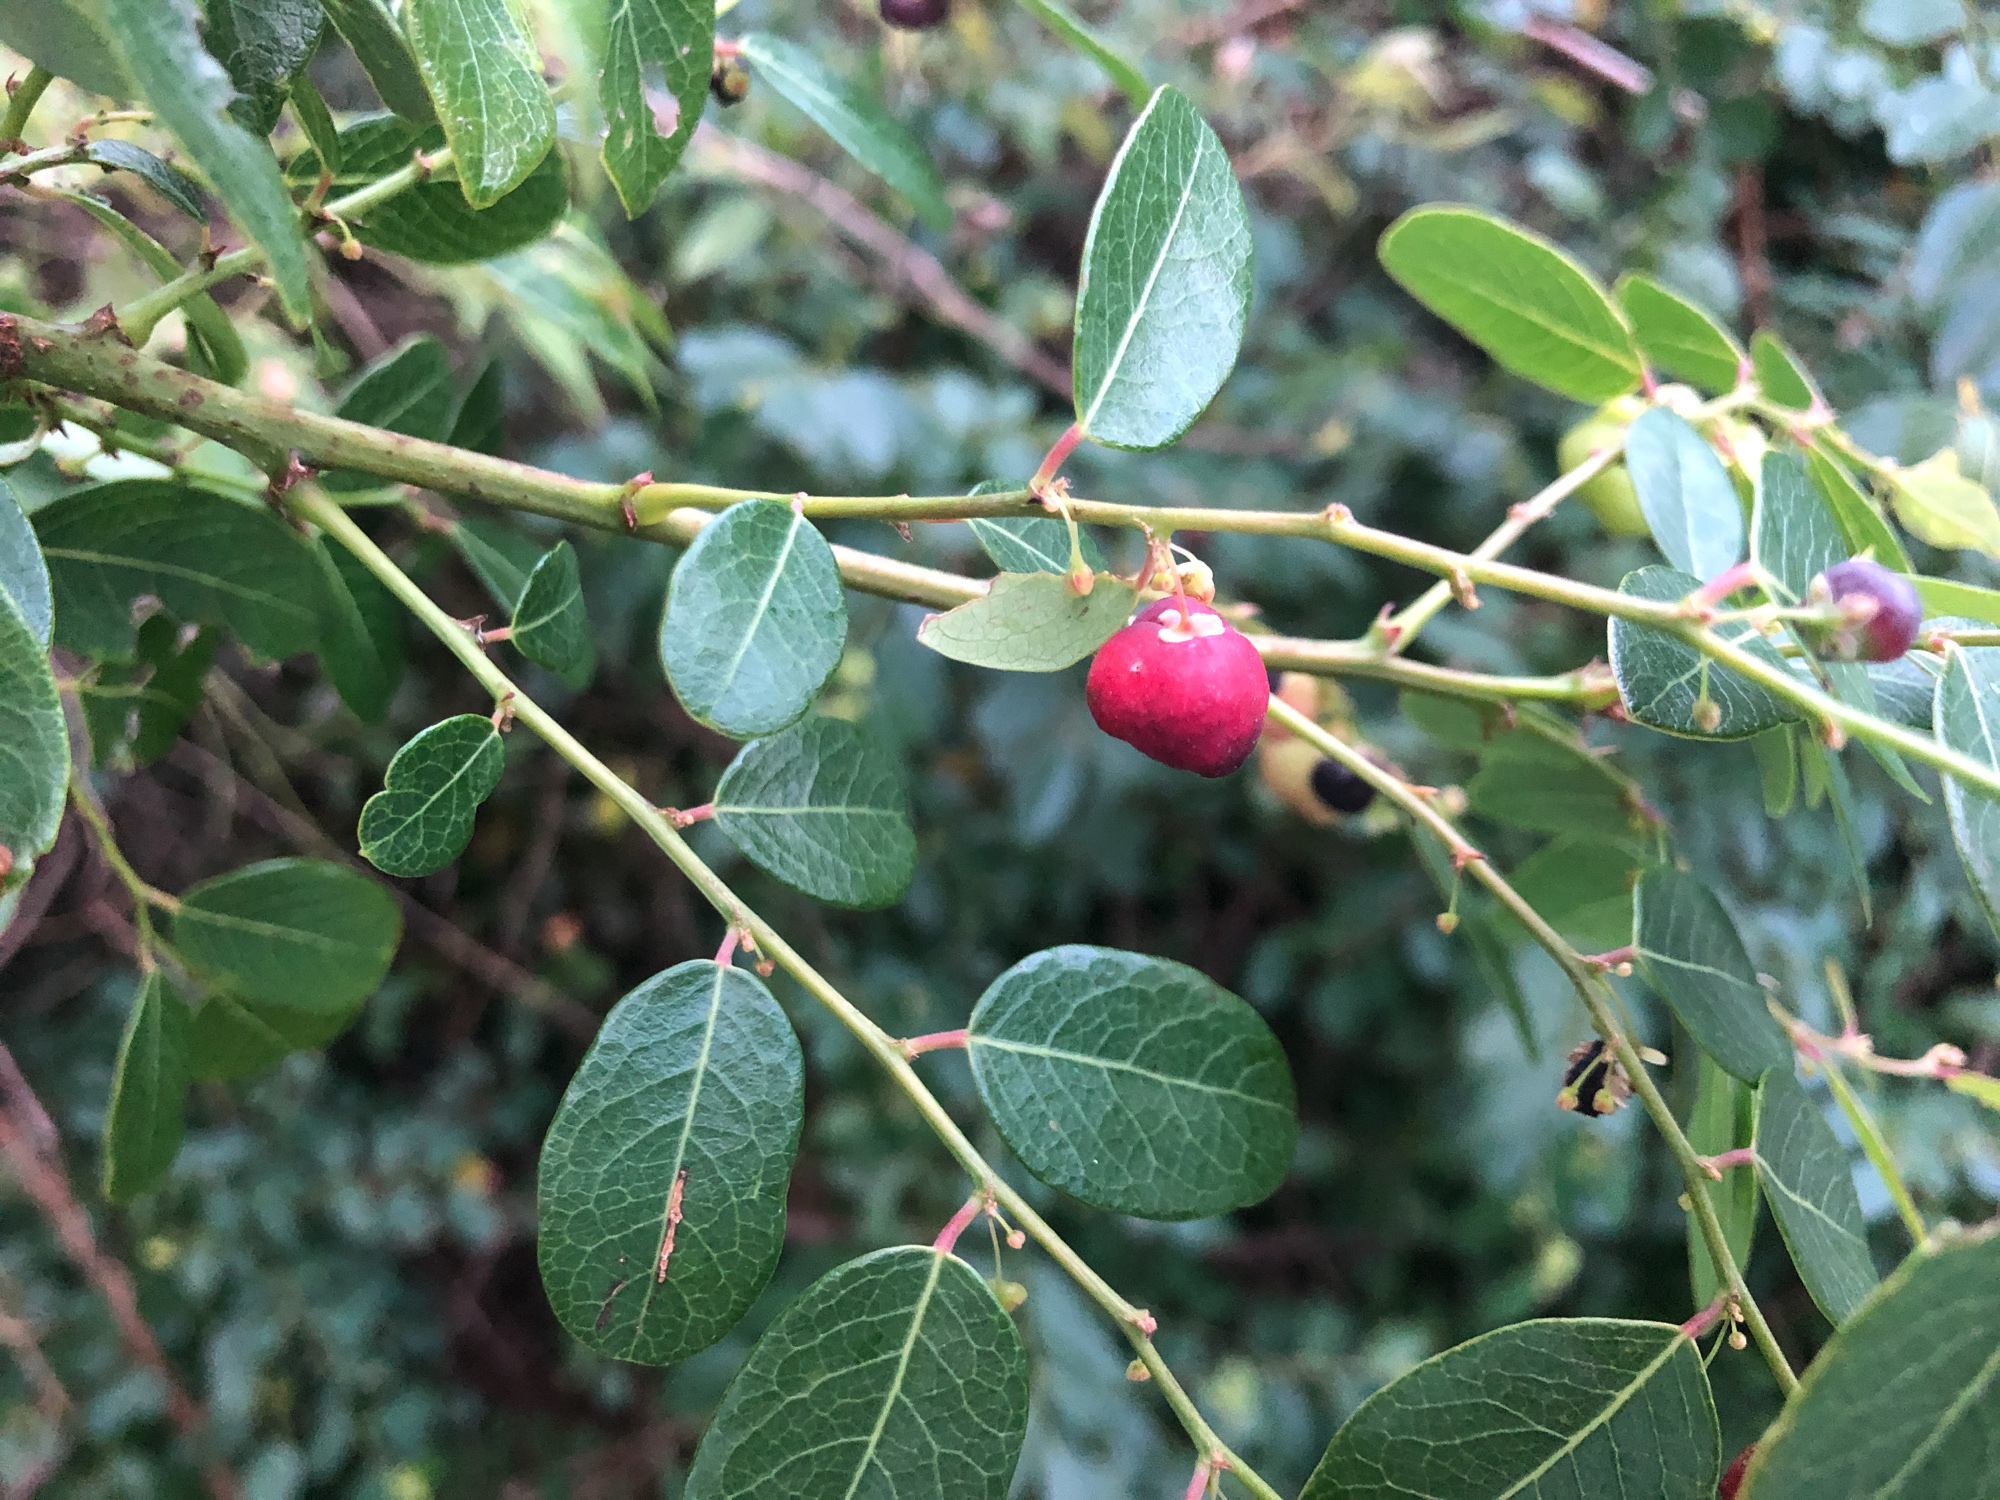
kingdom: Plantae
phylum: Tracheophyta
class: Magnoliopsida
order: Malpighiales
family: Phyllanthaceae
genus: Phyllanthus
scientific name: Phyllanthus reticulatus
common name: Potato bush
